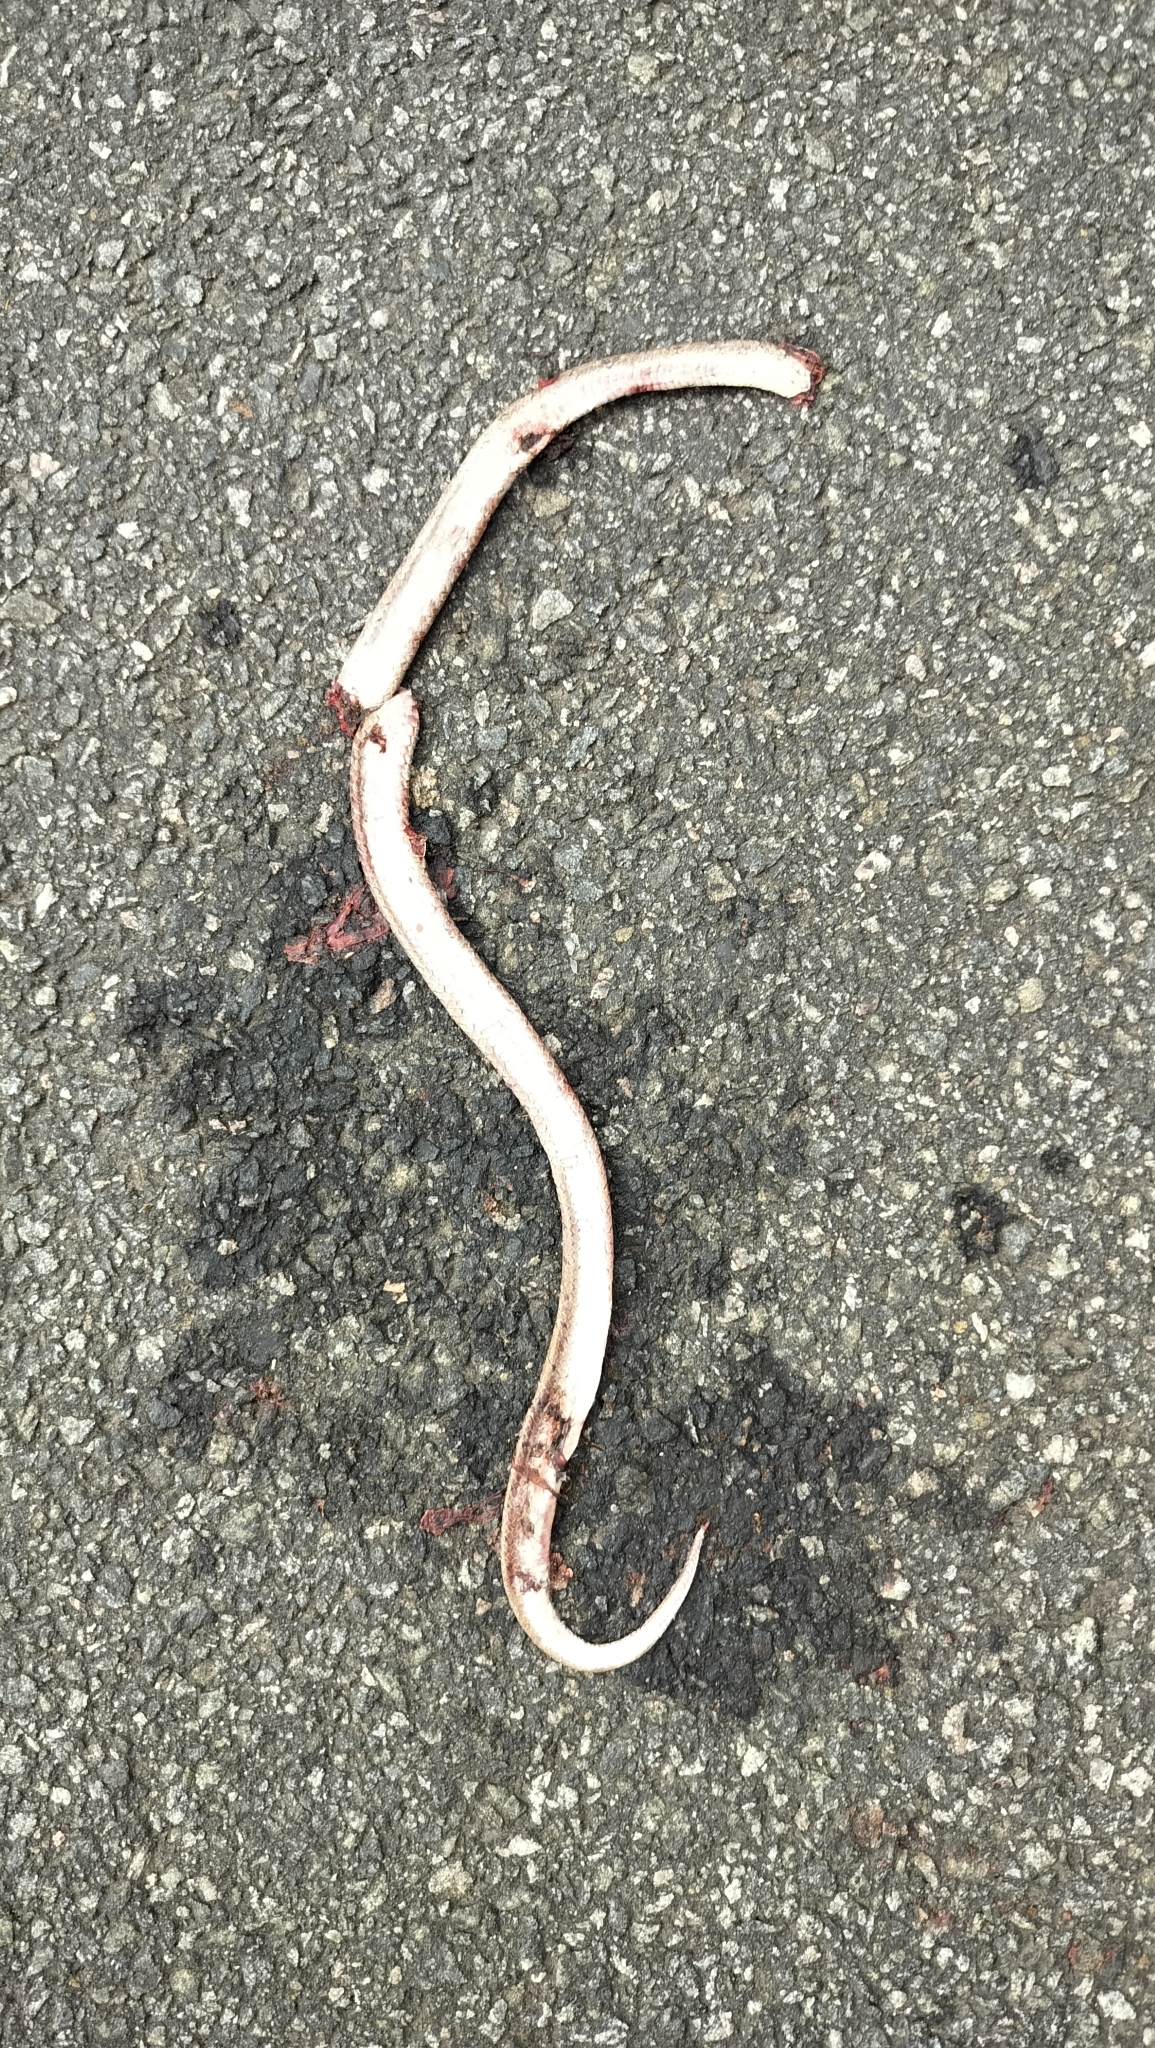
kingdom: Animalia
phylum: Chordata
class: Squamata
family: Colubridae
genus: Oligodon
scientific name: Oligodon taeniolatus
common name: Loos snake
